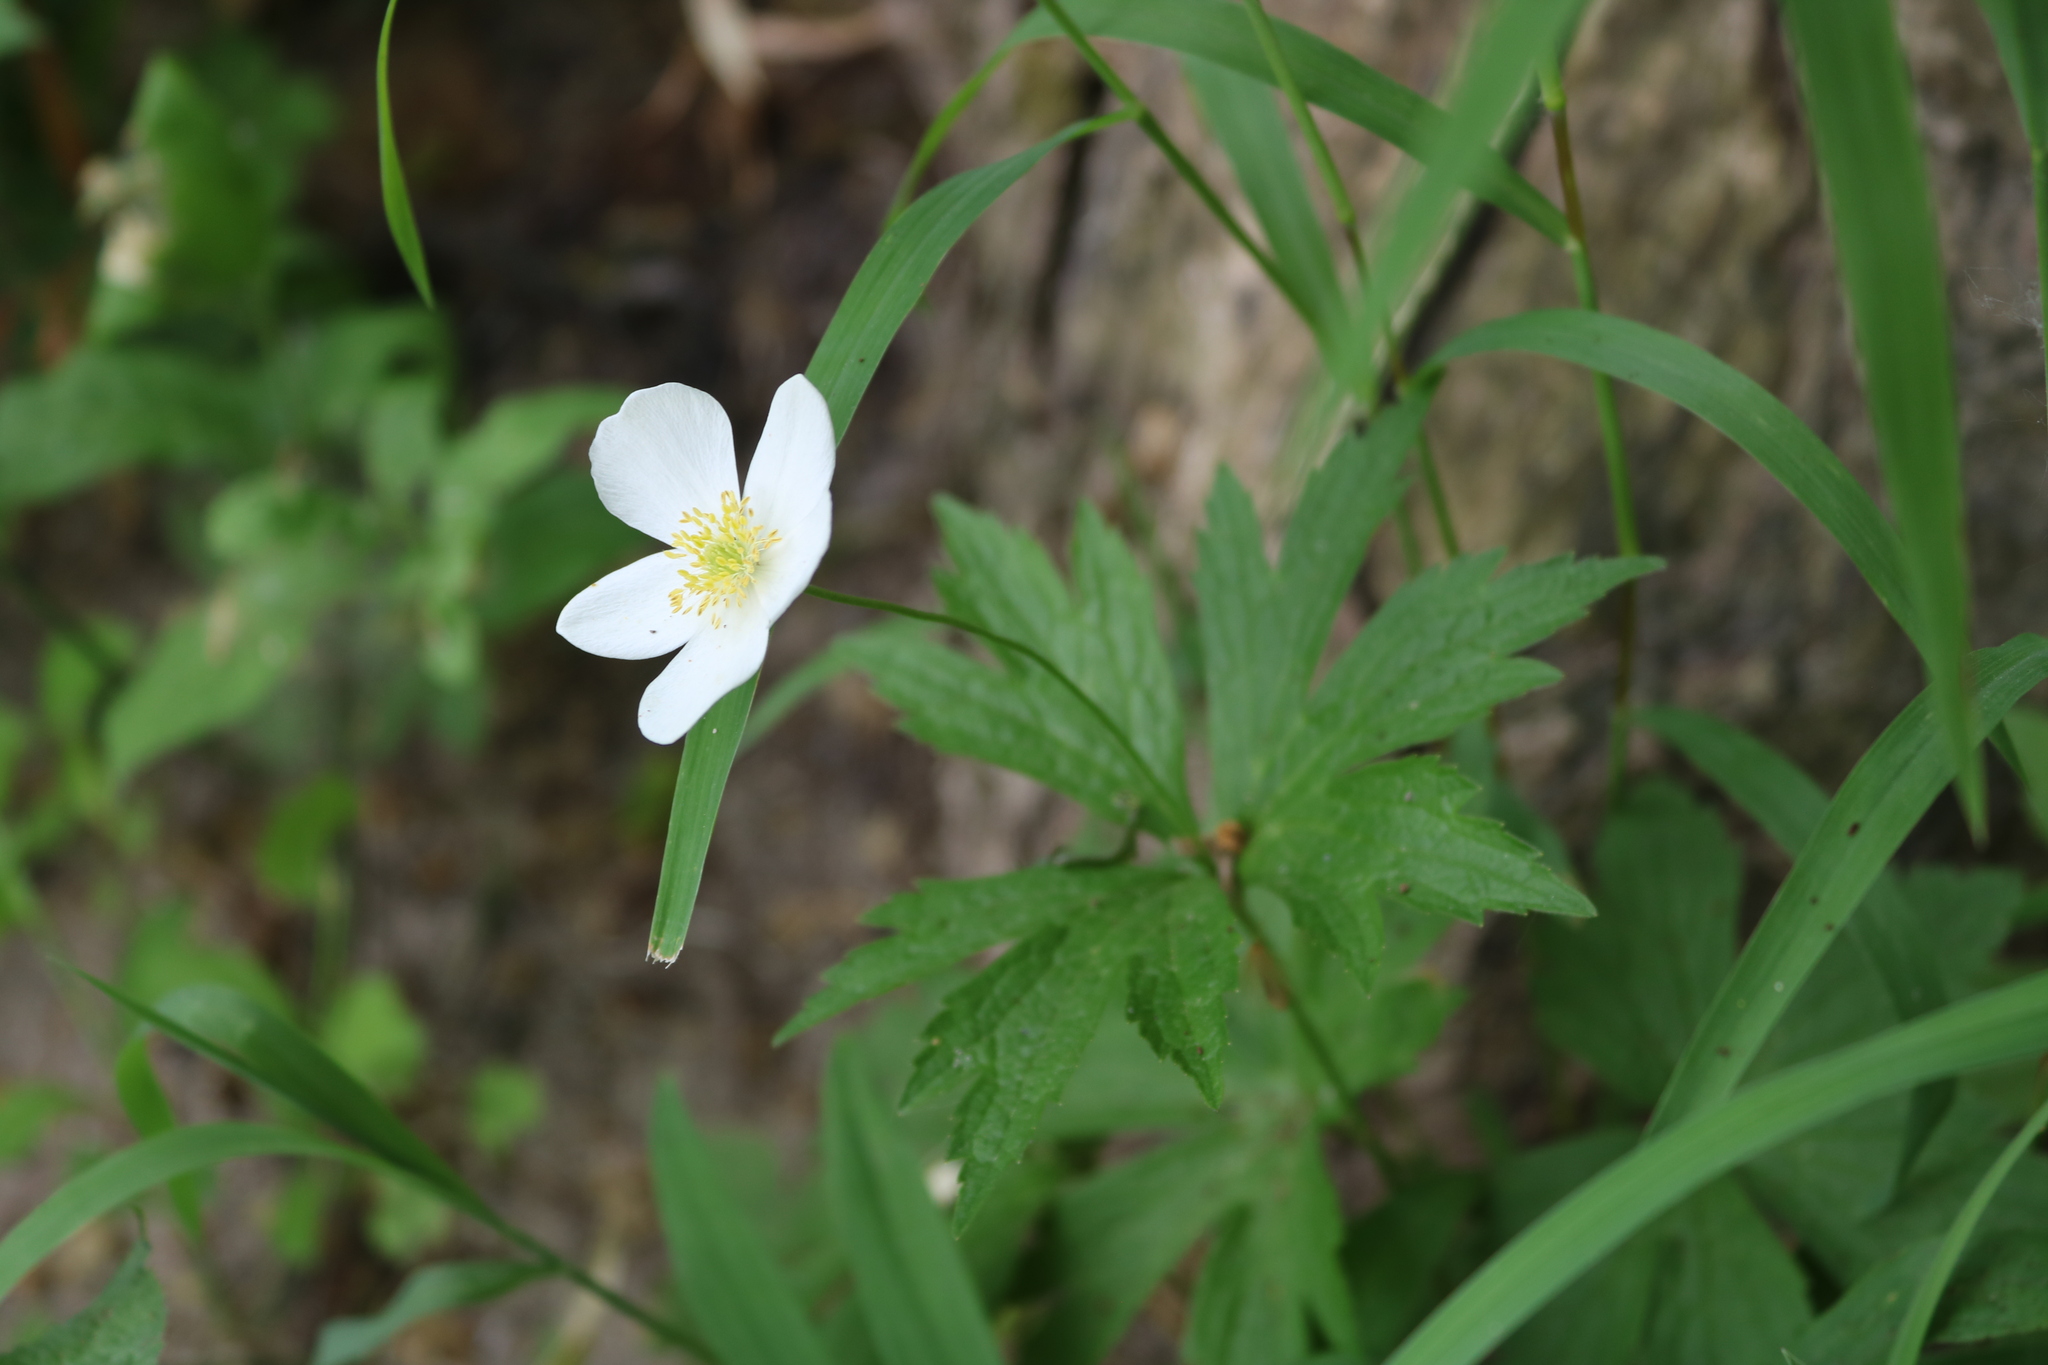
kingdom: Plantae
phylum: Tracheophyta
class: Magnoliopsida
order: Ranunculales
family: Ranunculaceae
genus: Anemonastrum
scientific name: Anemonastrum canadense
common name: Canada anemone
